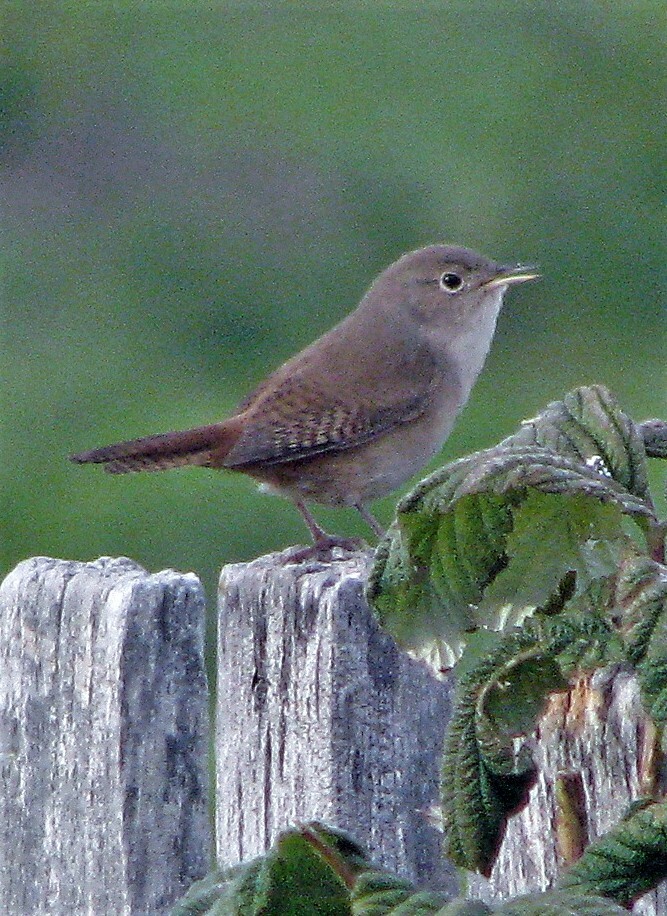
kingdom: Animalia
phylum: Chordata
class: Aves
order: Passeriformes
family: Troglodytidae
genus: Troglodytes
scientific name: Troglodytes aedon
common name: House wren
